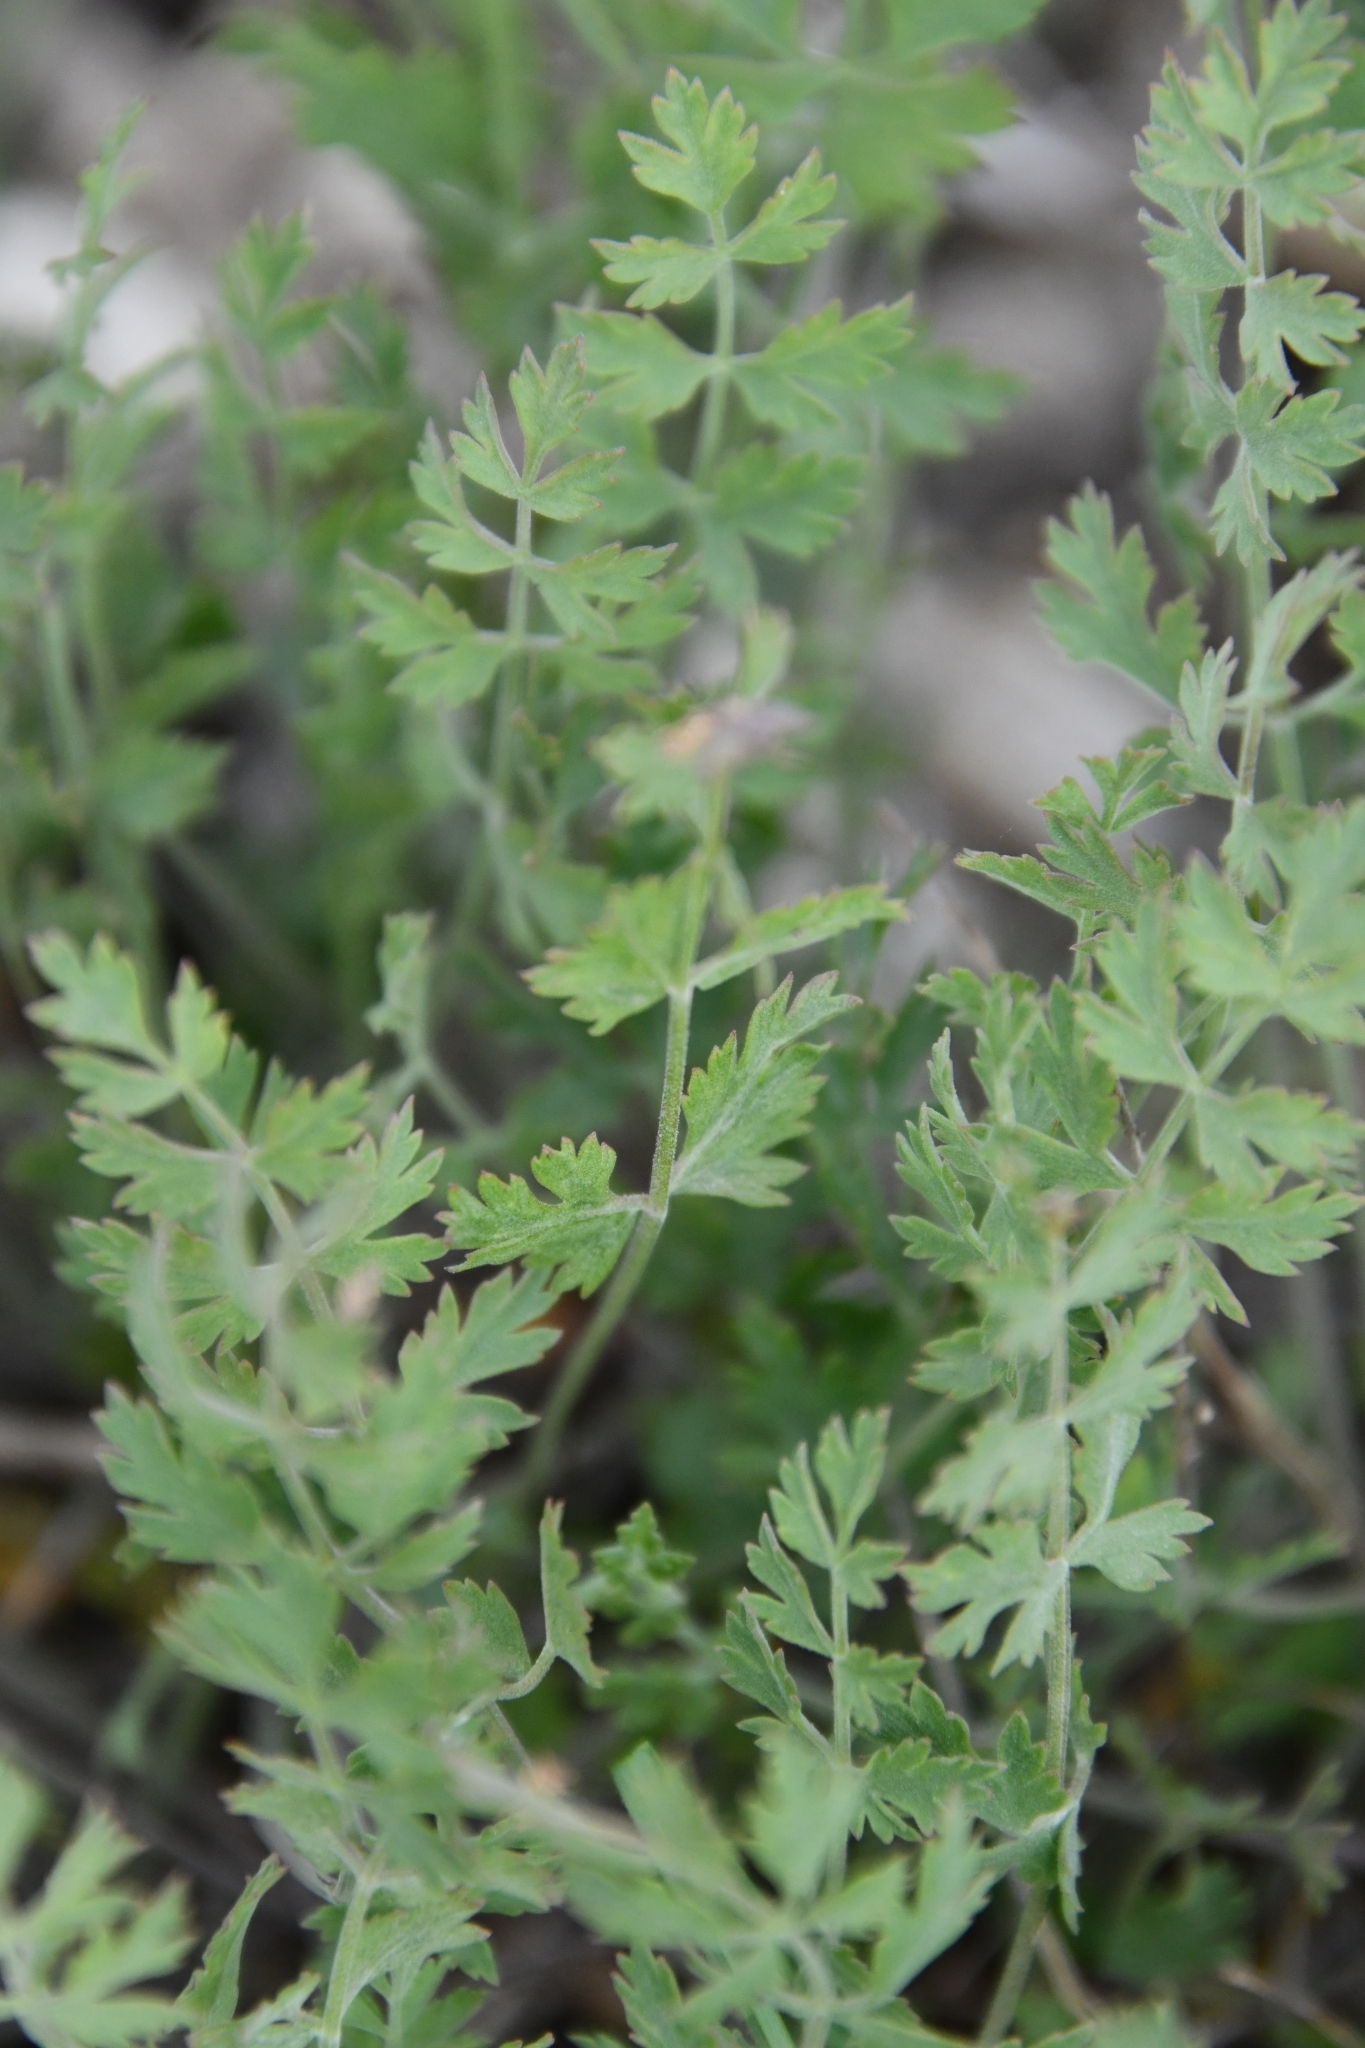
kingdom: Plantae
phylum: Tracheophyta
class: Magnoliopsida
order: Apiales
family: Apiaceae
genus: Pimpinella
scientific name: Pimpinella tragium
